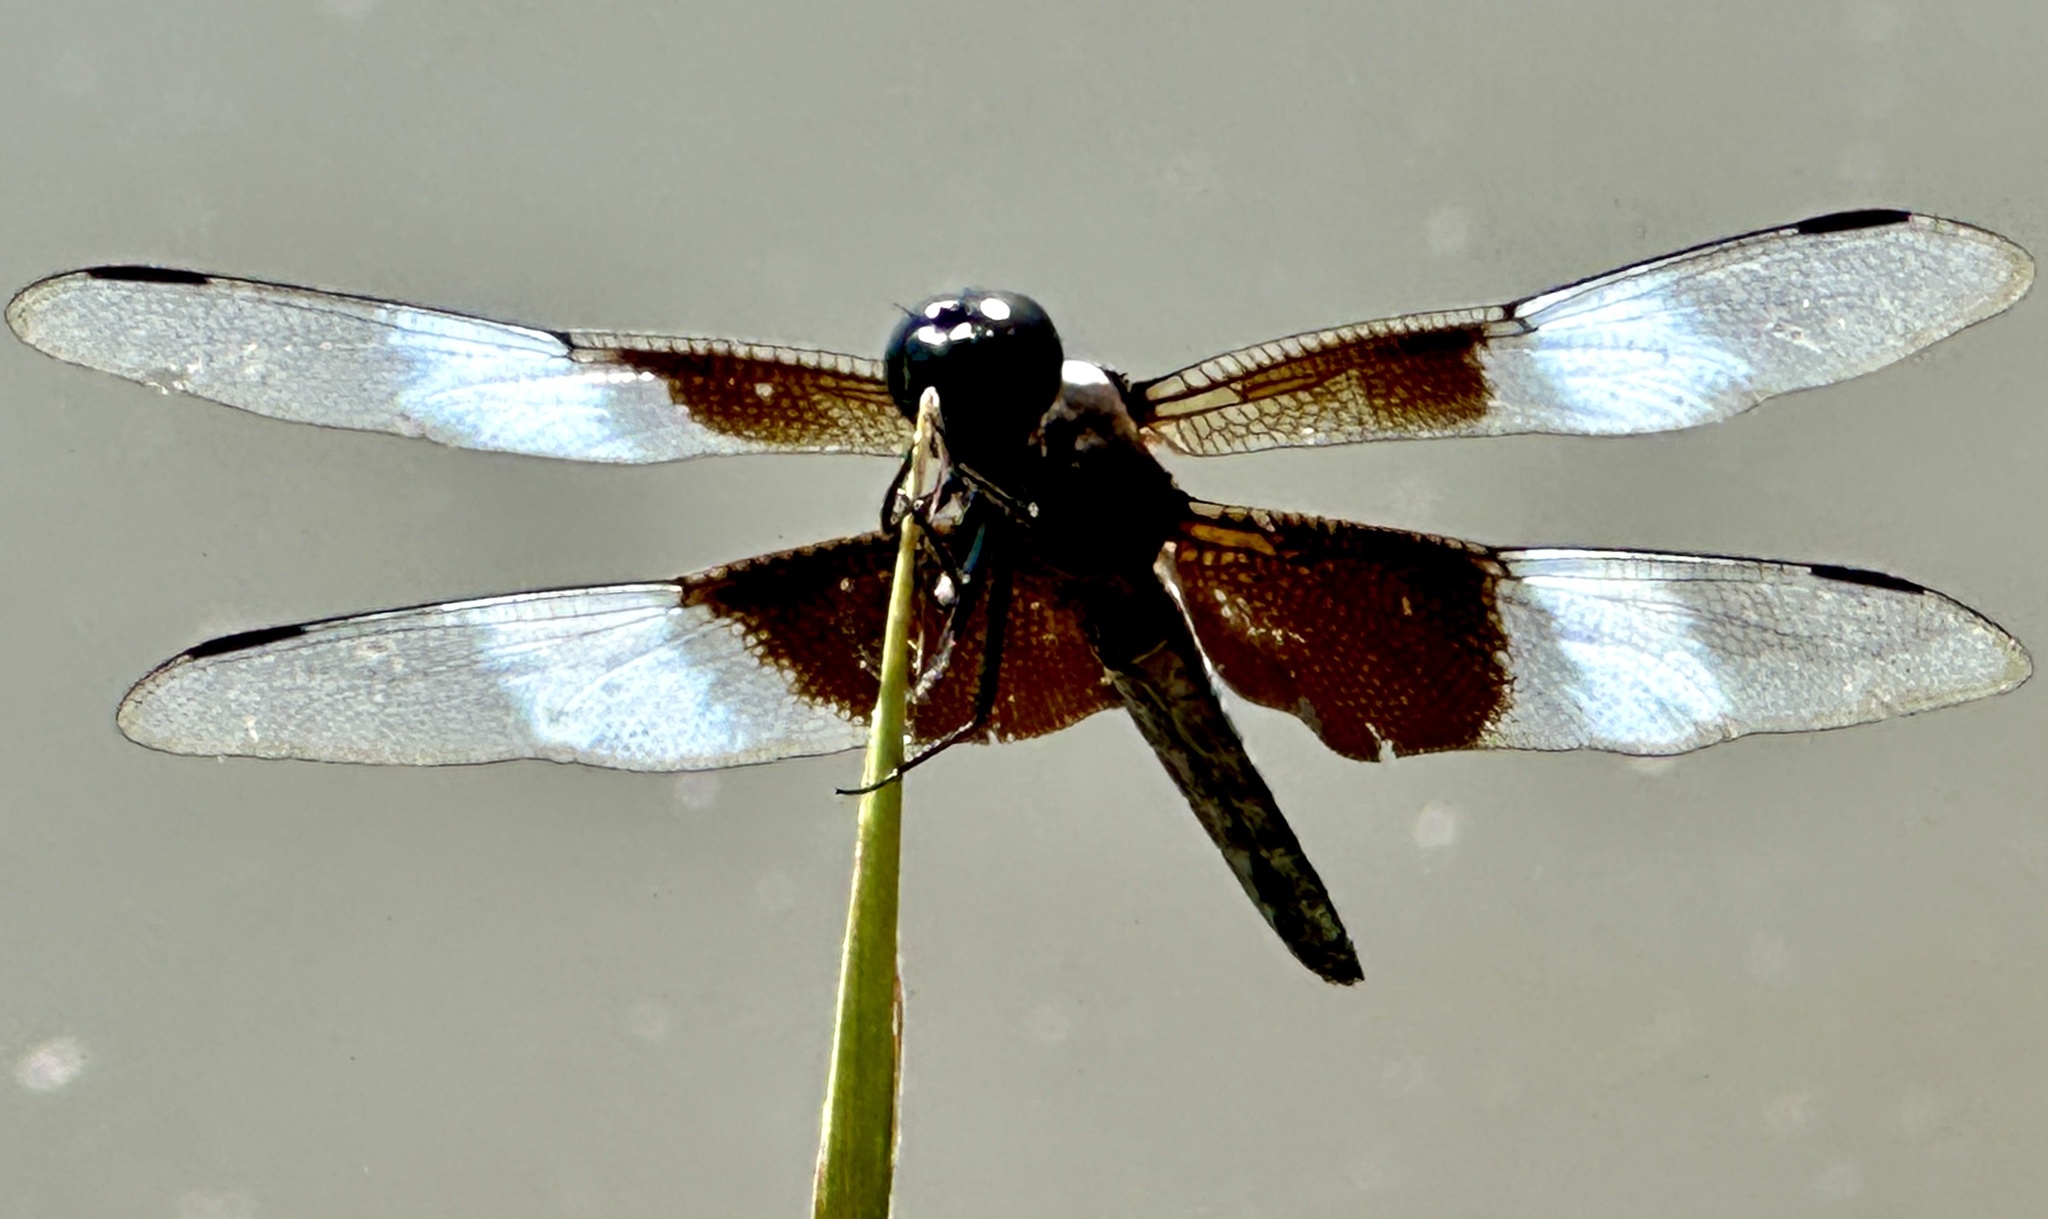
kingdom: Animalia
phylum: Arthropoda
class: Insecta
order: Odonata
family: Libellulidae
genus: Libellula
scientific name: Libellula luctuosa
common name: Widow skimmer
